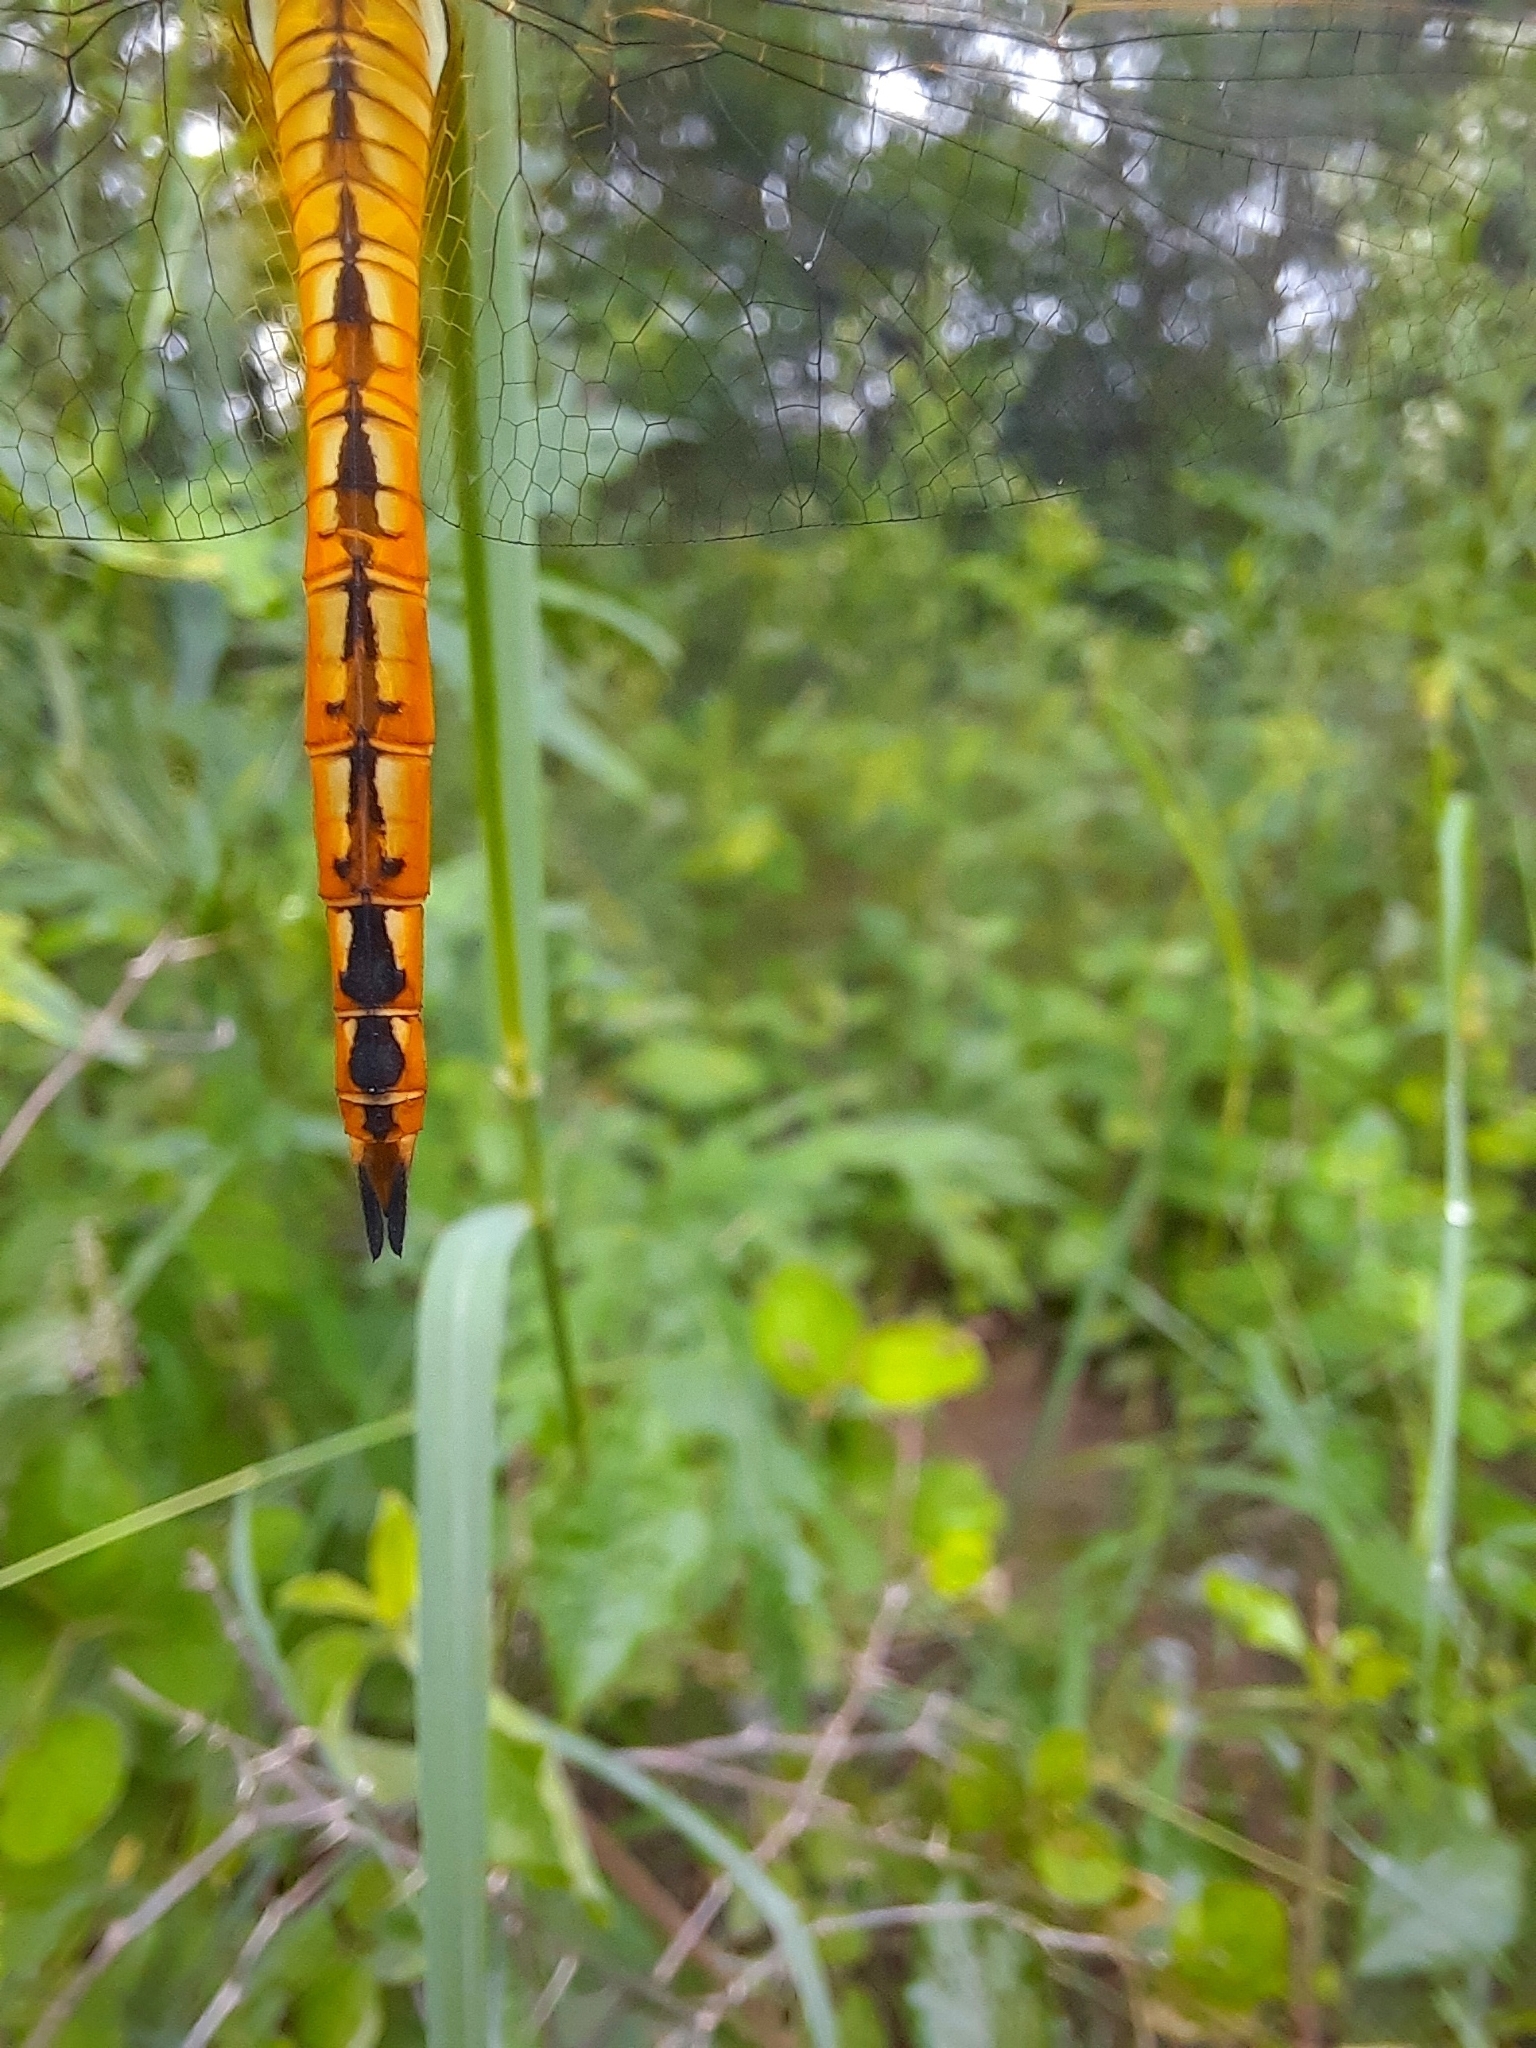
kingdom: Animalia
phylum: Arthropoda
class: Insecta
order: Odonata
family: Libellulidae
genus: Pantala
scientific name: Pantala flavescens
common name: Wandering glider
